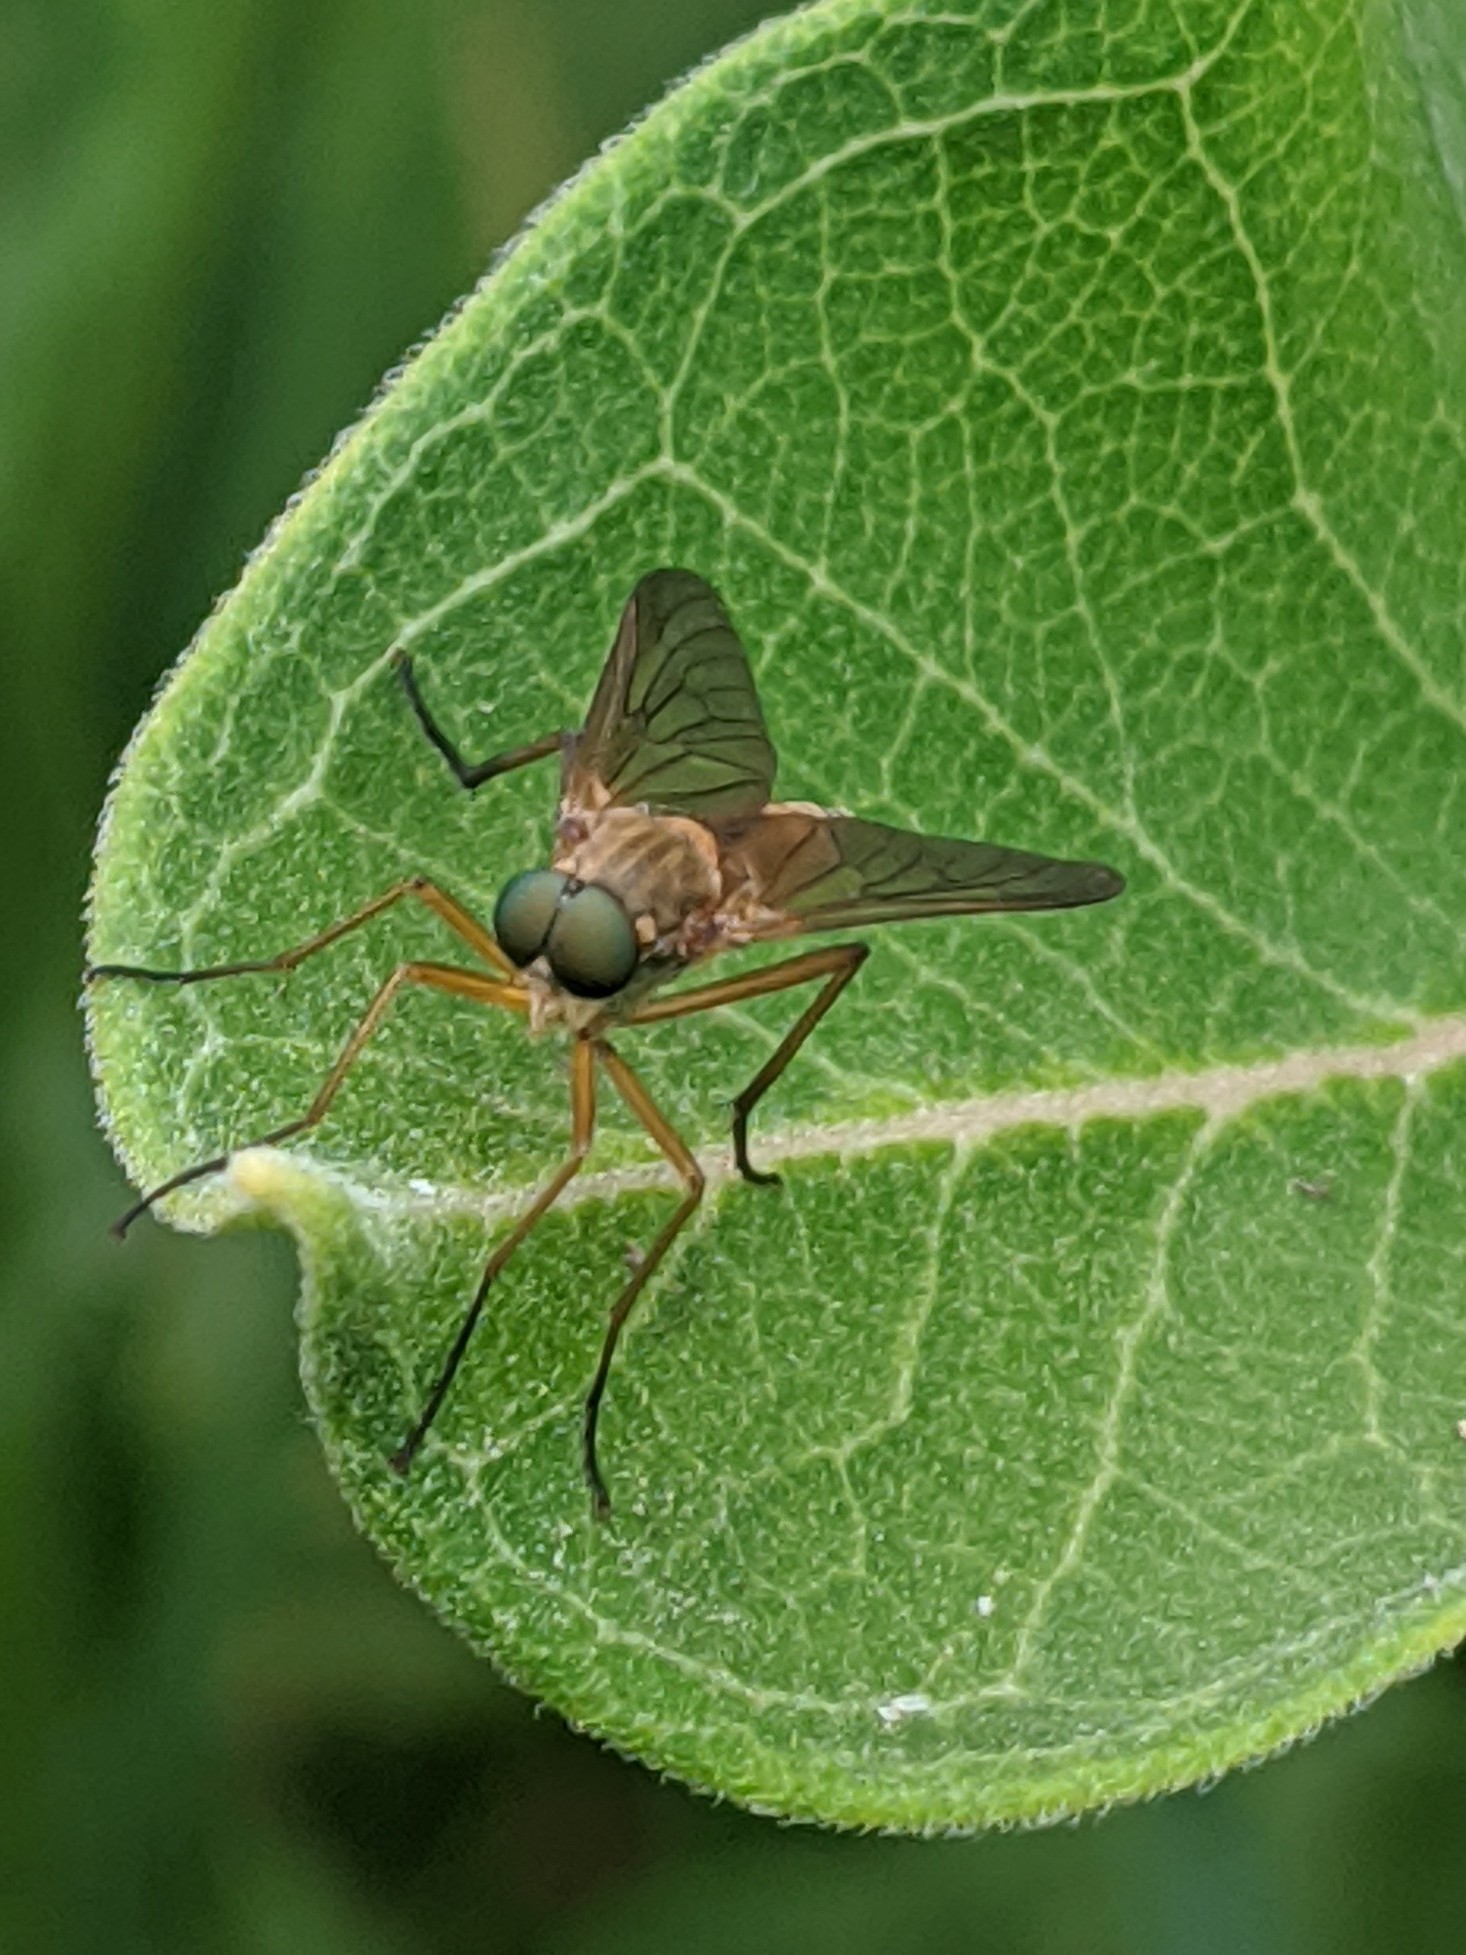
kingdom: Animalia
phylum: Arthropoda
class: Insecta
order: Diptera
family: Rhagionidae
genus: Rhagio
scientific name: Rhagio tringaria
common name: Marsh snipefly
